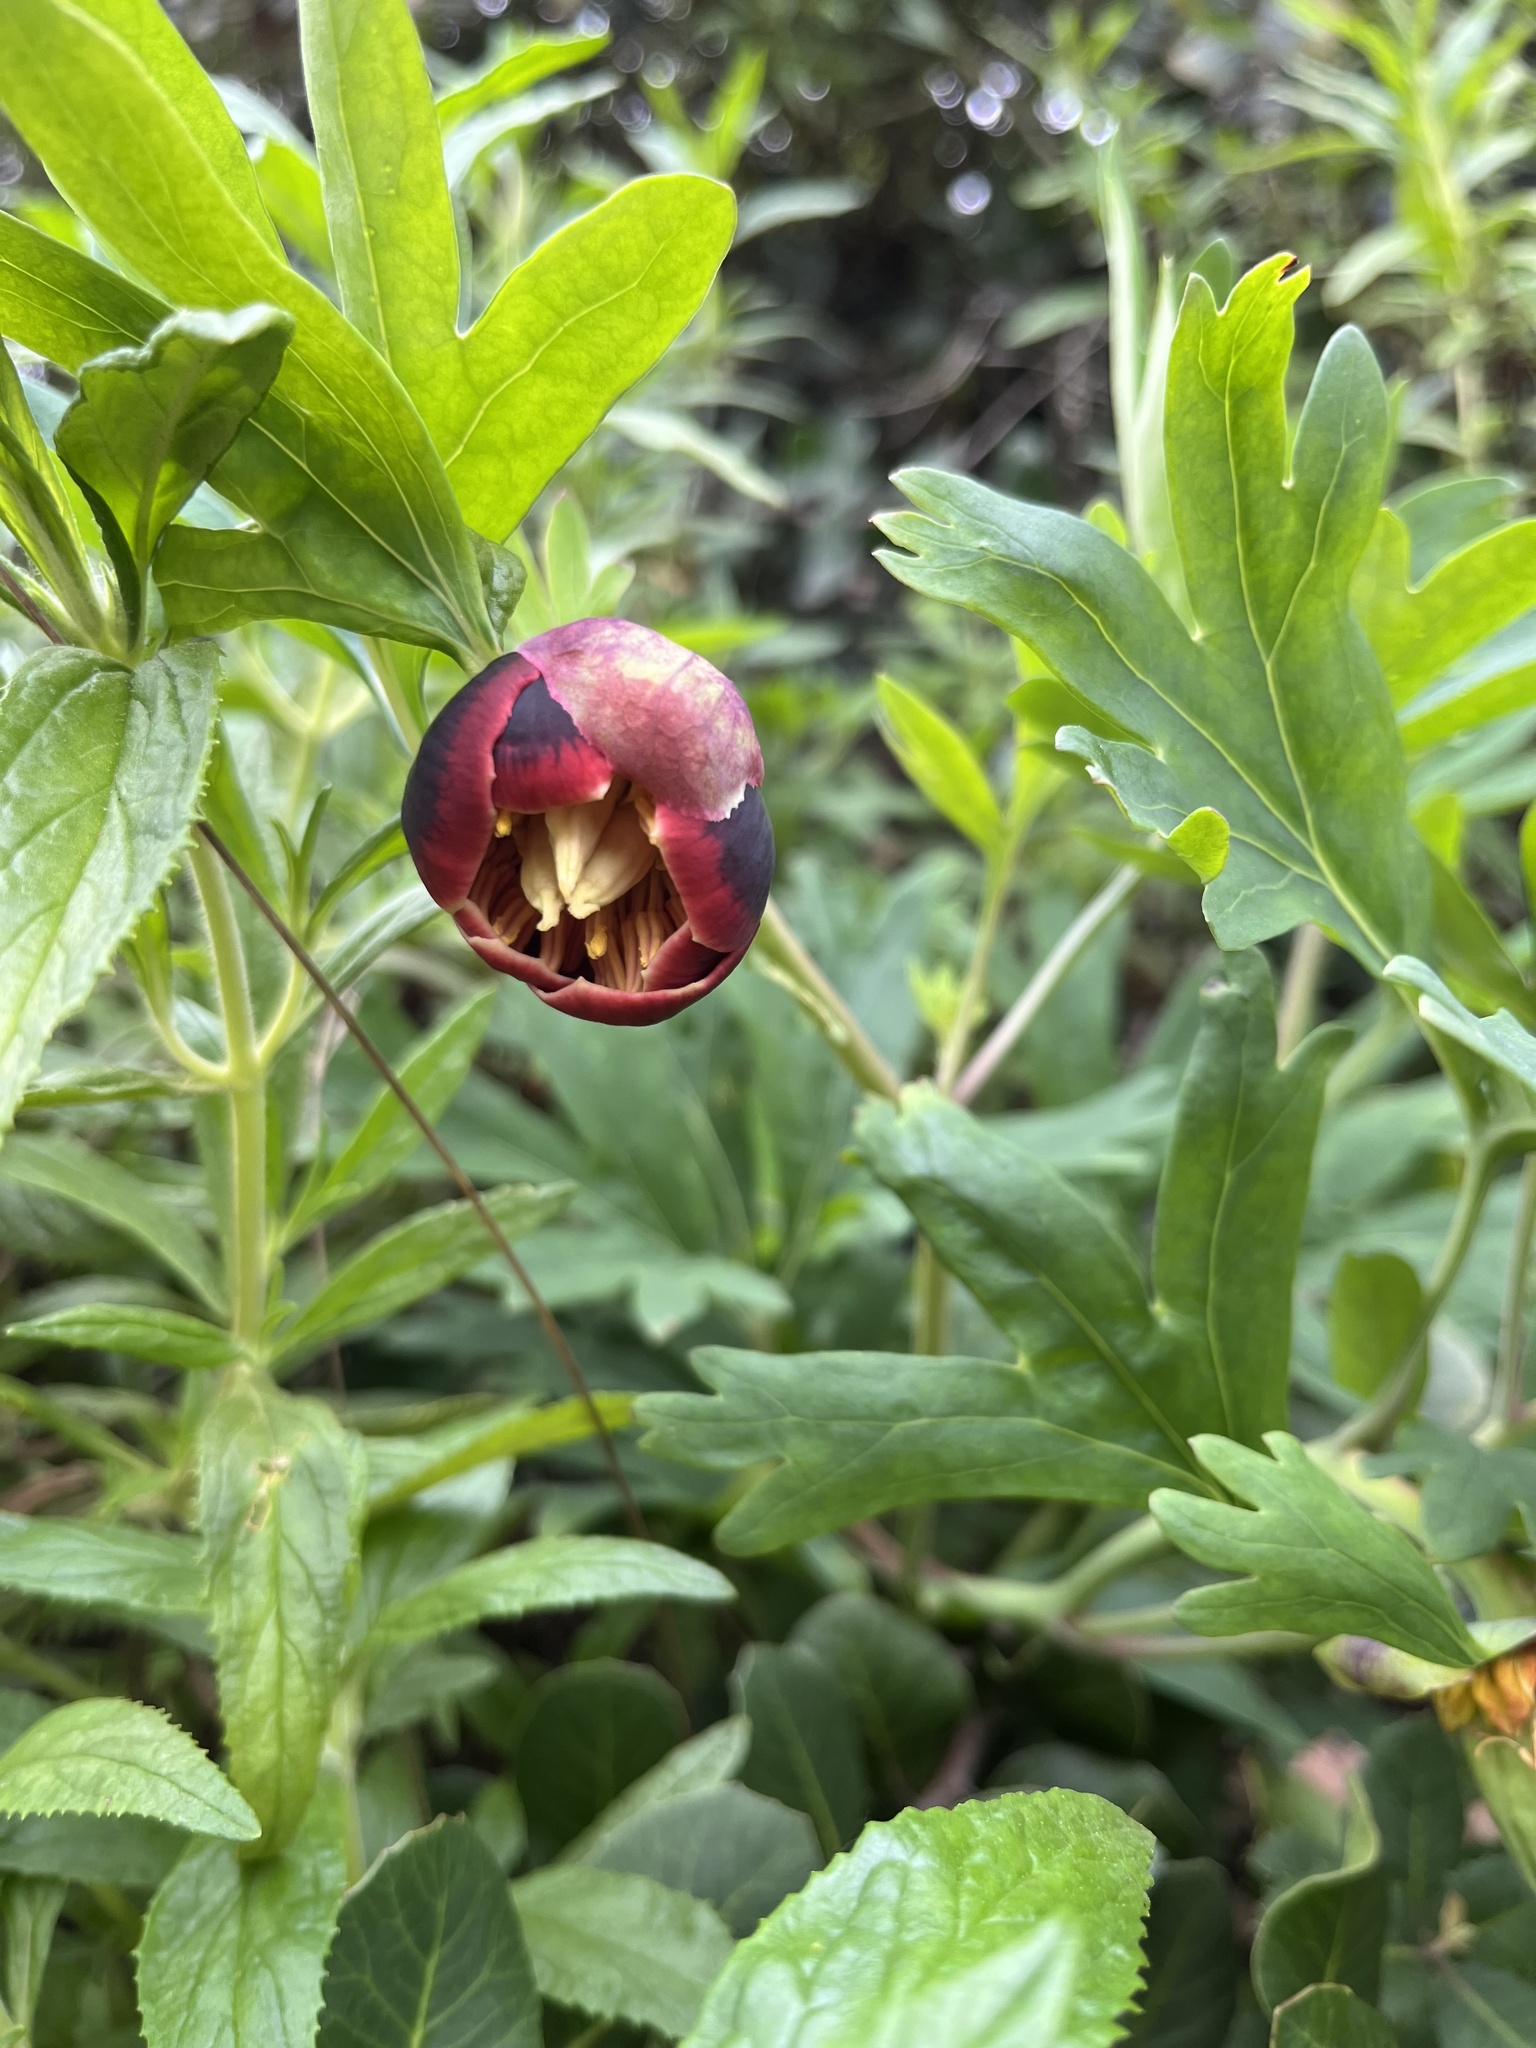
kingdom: Plantae
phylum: Tracheophyta
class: Magnoliopsida
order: Saxifragales
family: Paeoniaceae
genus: Paeonia
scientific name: Paeonia californica
